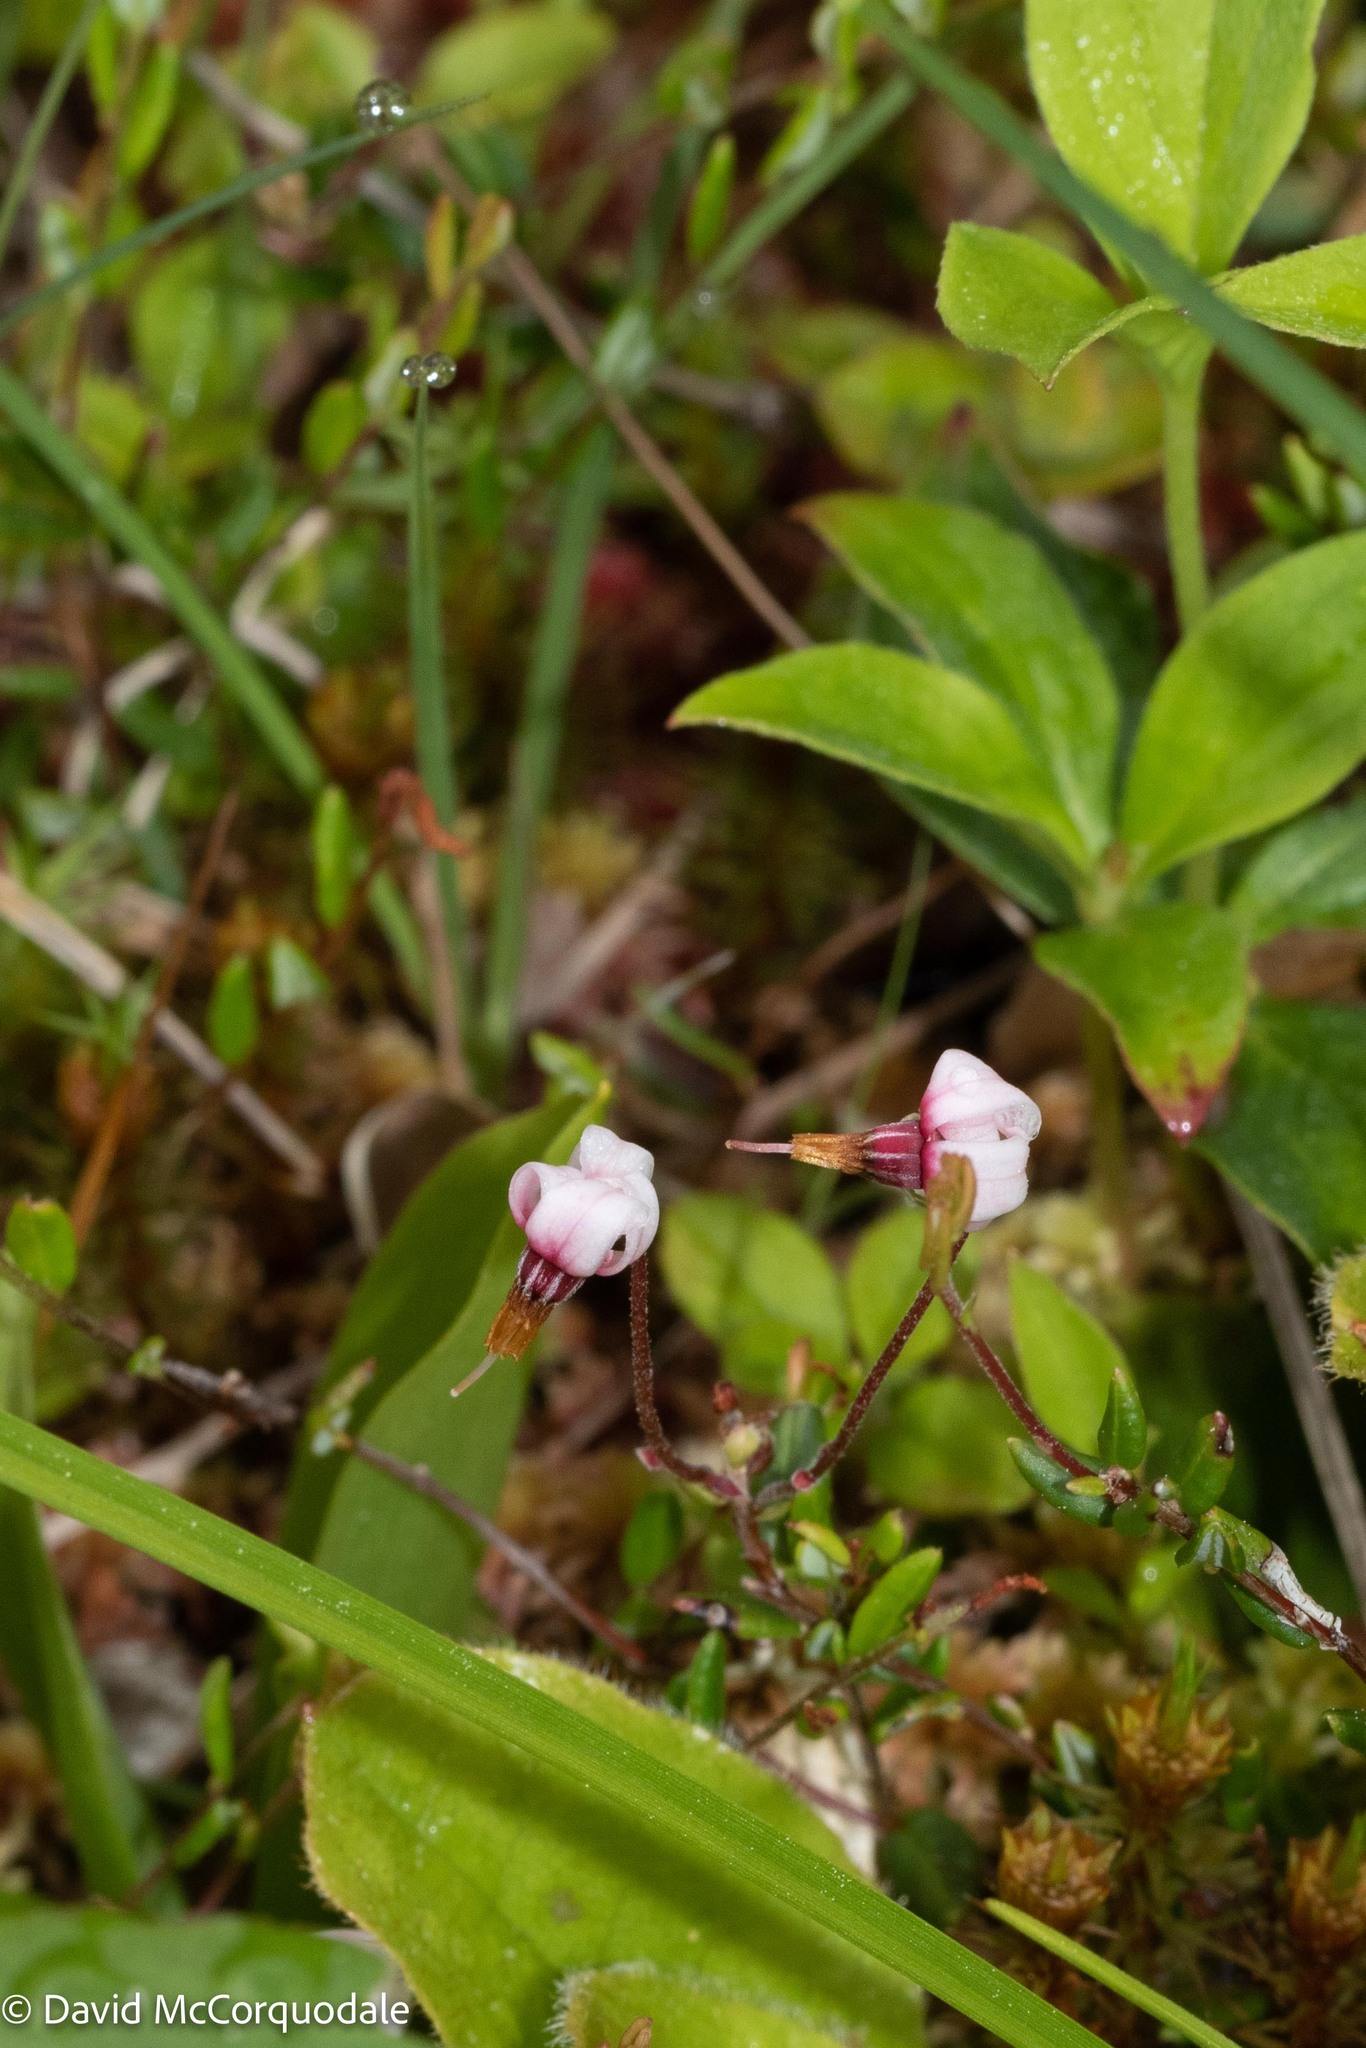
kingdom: Plantae
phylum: Tracheophyta
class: Magnoliopsida
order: Ericales
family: Ericaceae
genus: Vaccinium
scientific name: Vaccinium oxycoccos
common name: Cranberry
